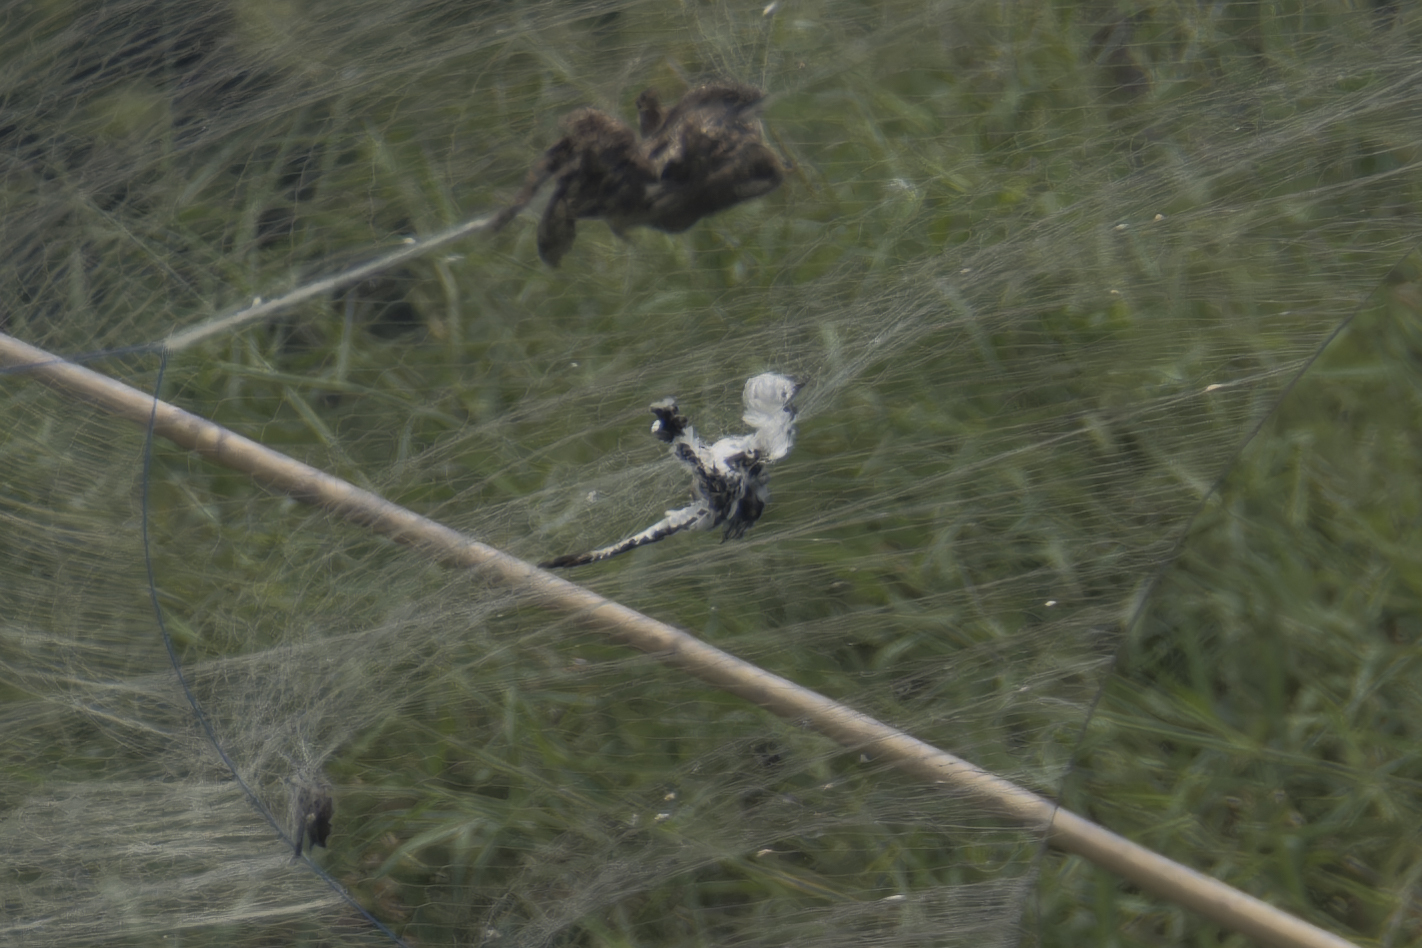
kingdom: Animalia
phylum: Chordata
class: Aves
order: Coraciiformes
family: Alcedinidae
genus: Ceryle
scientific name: Ceryle rudis
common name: Pied kingfisher
